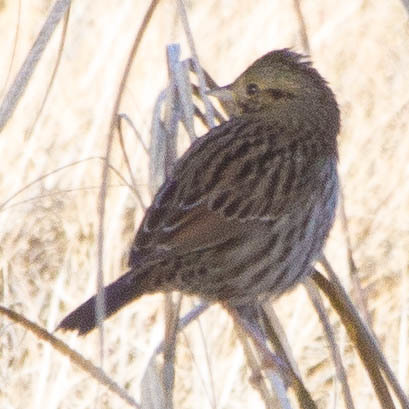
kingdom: Animalia
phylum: Chordata
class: Aves
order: Passeriformes
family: Passerellidae
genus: Melospiza
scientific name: Melospiza lincolnii
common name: Lincoln's sparrow
